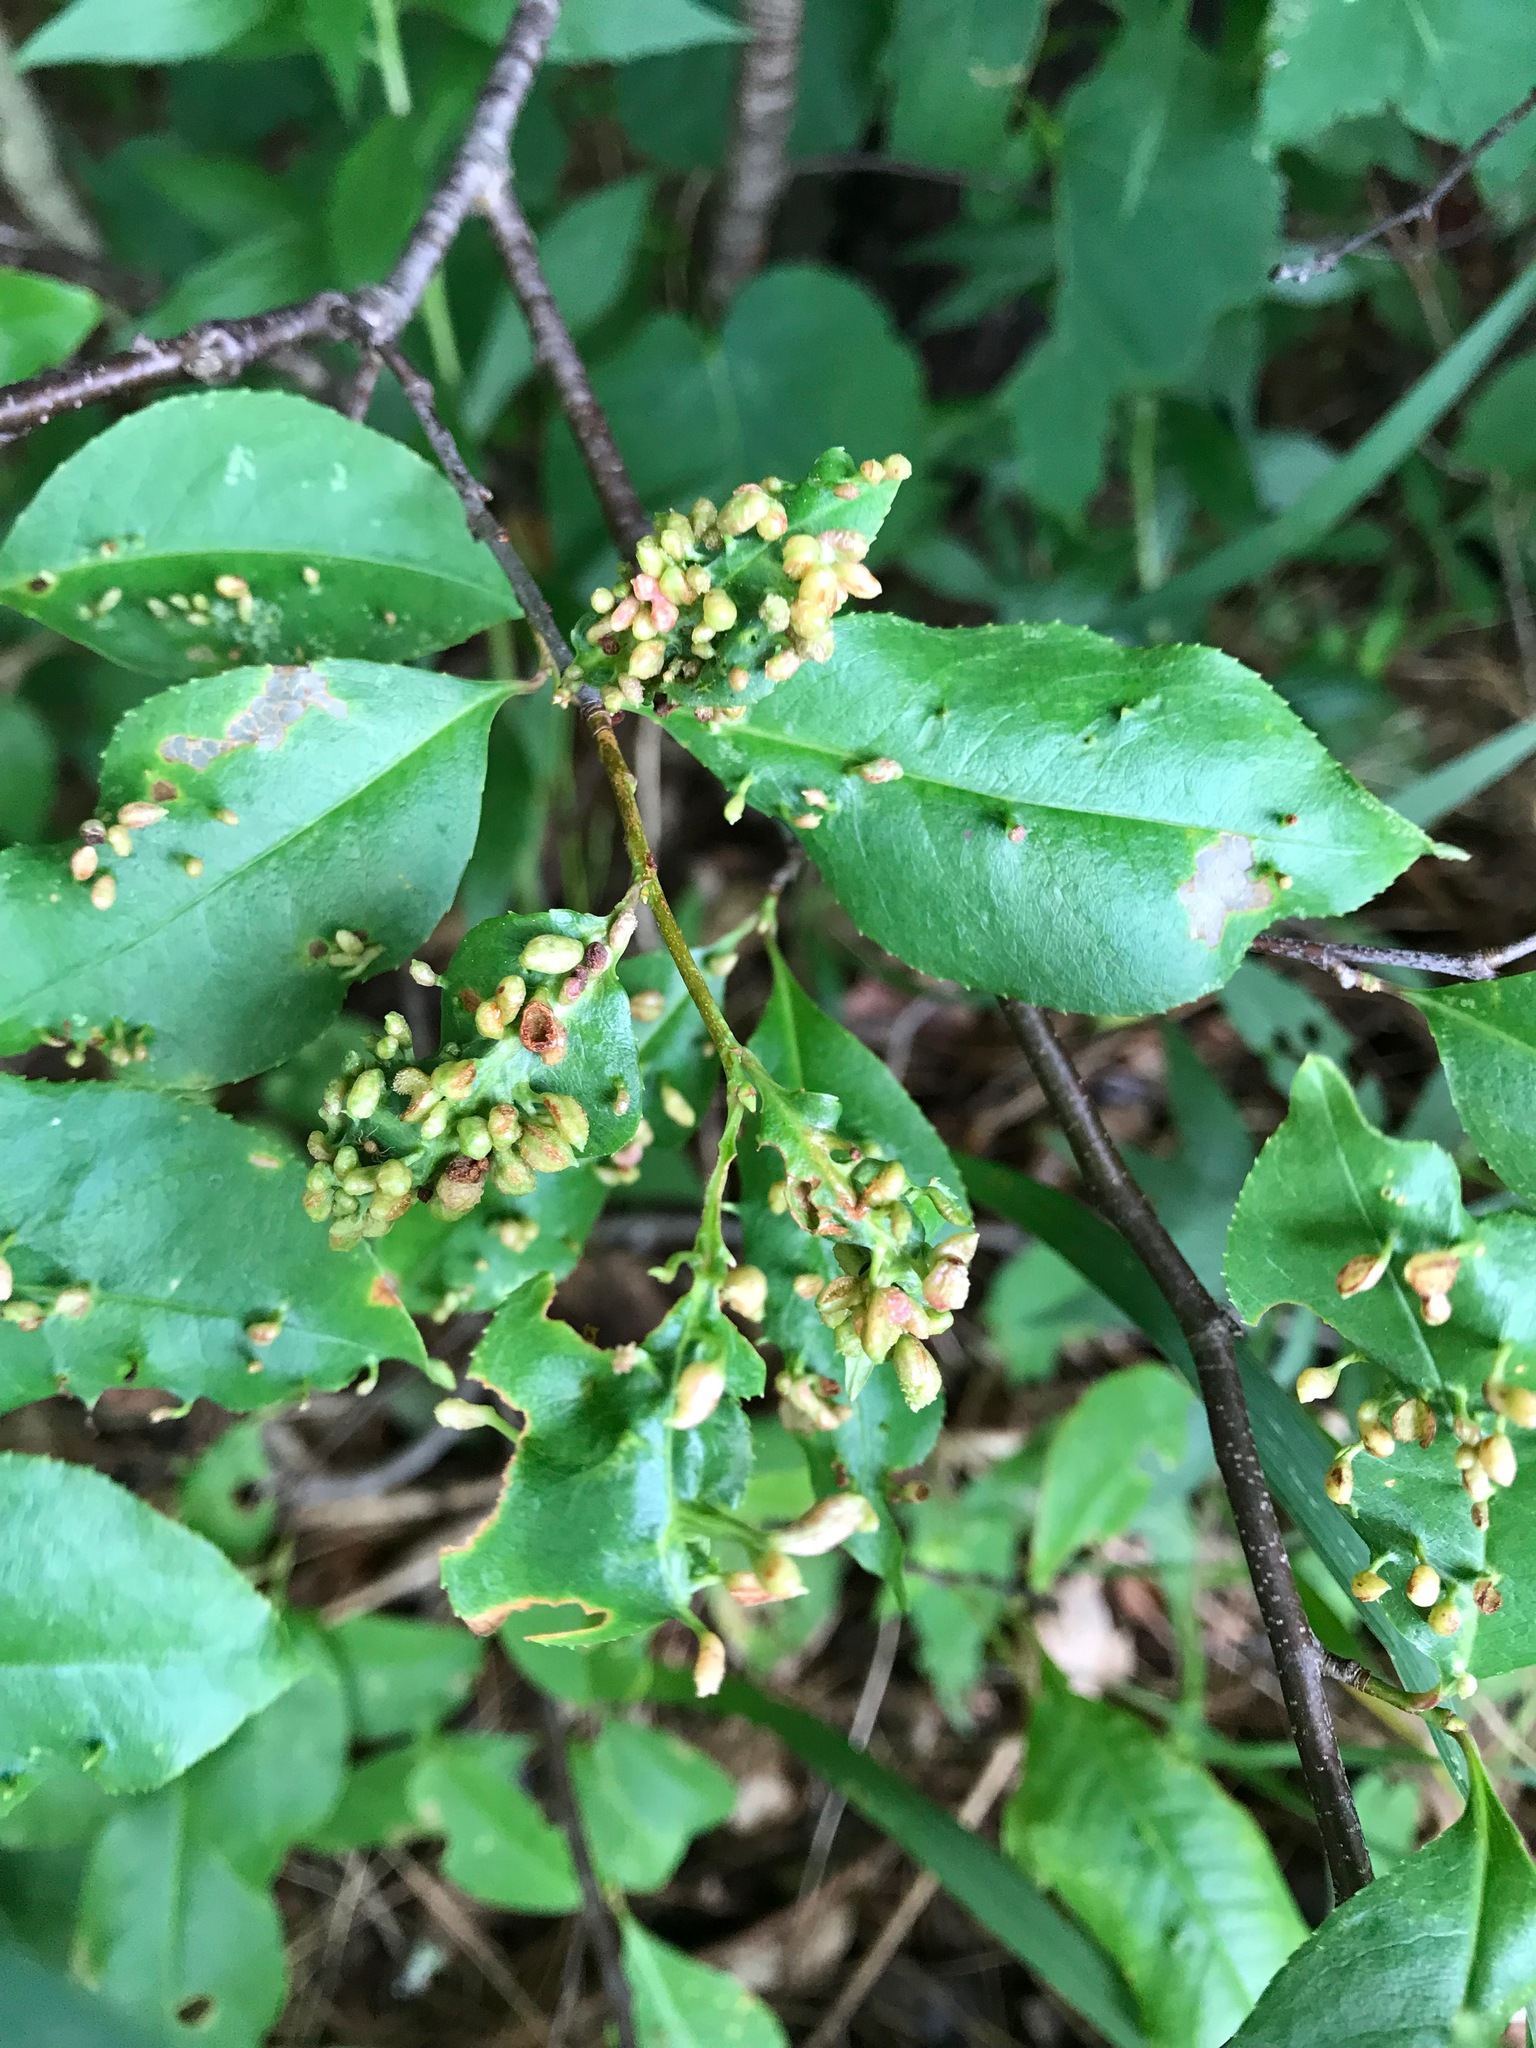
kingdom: Animalia
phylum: Arthropoda
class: Arachnida
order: Trombidiformes
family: Eriophyidae
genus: Eriophyes
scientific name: Eriophyes
